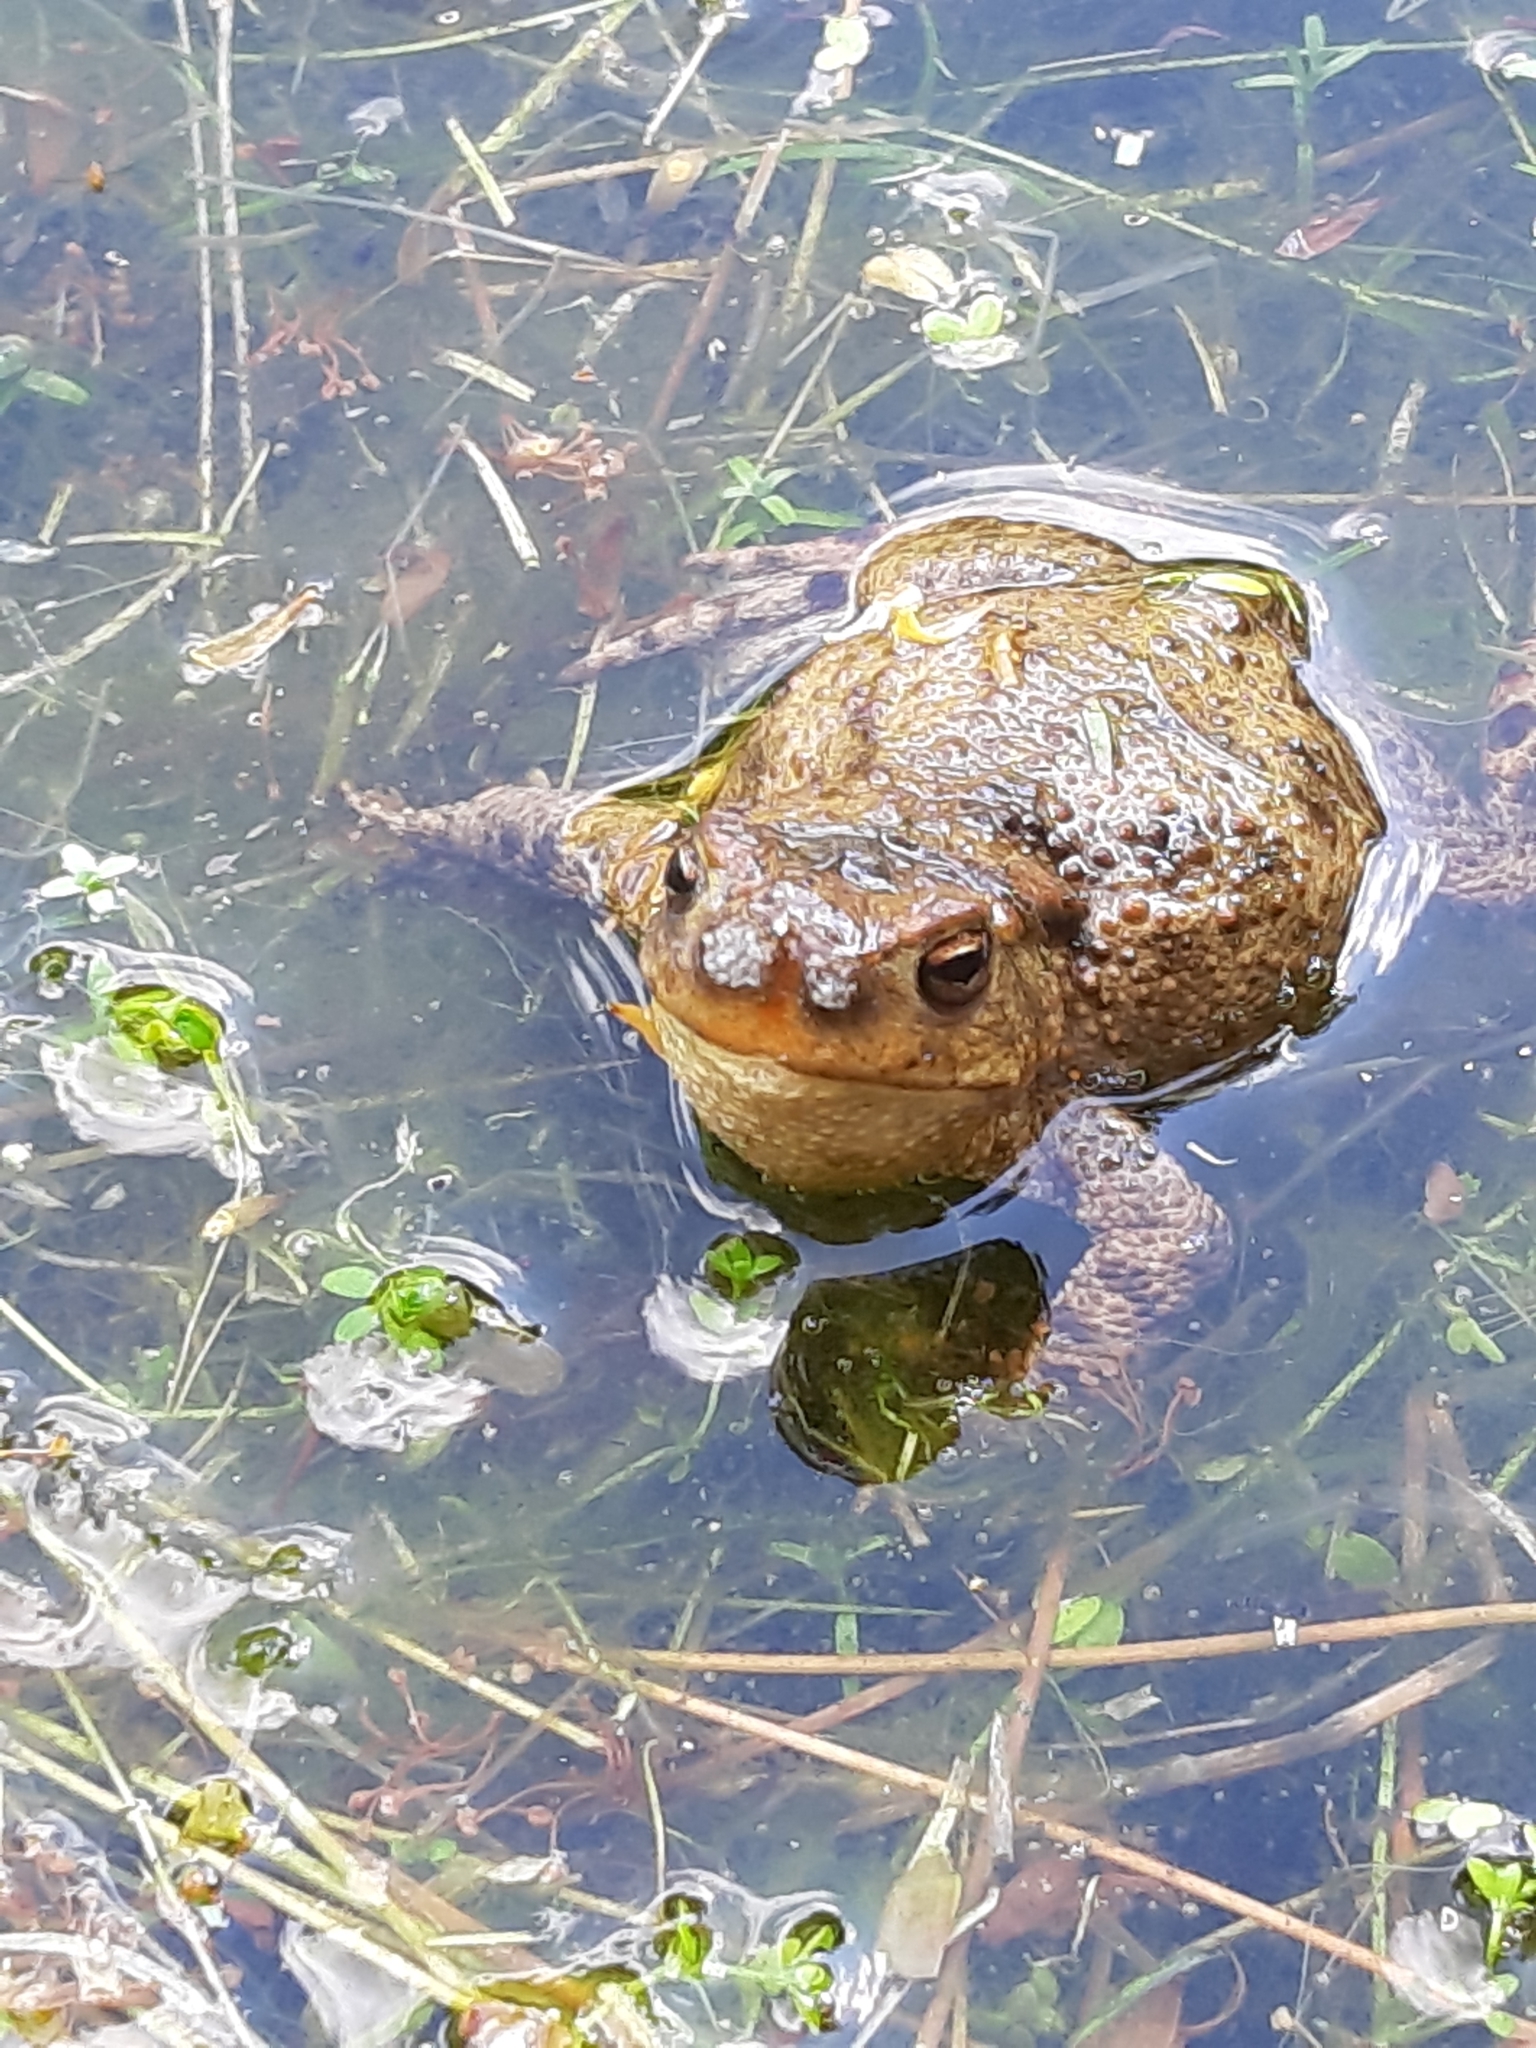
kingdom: Animalia
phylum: Chordata
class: Amphibia
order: Anura
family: Bufonidae
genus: Bufo
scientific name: Bufo bufo
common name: Common toad
